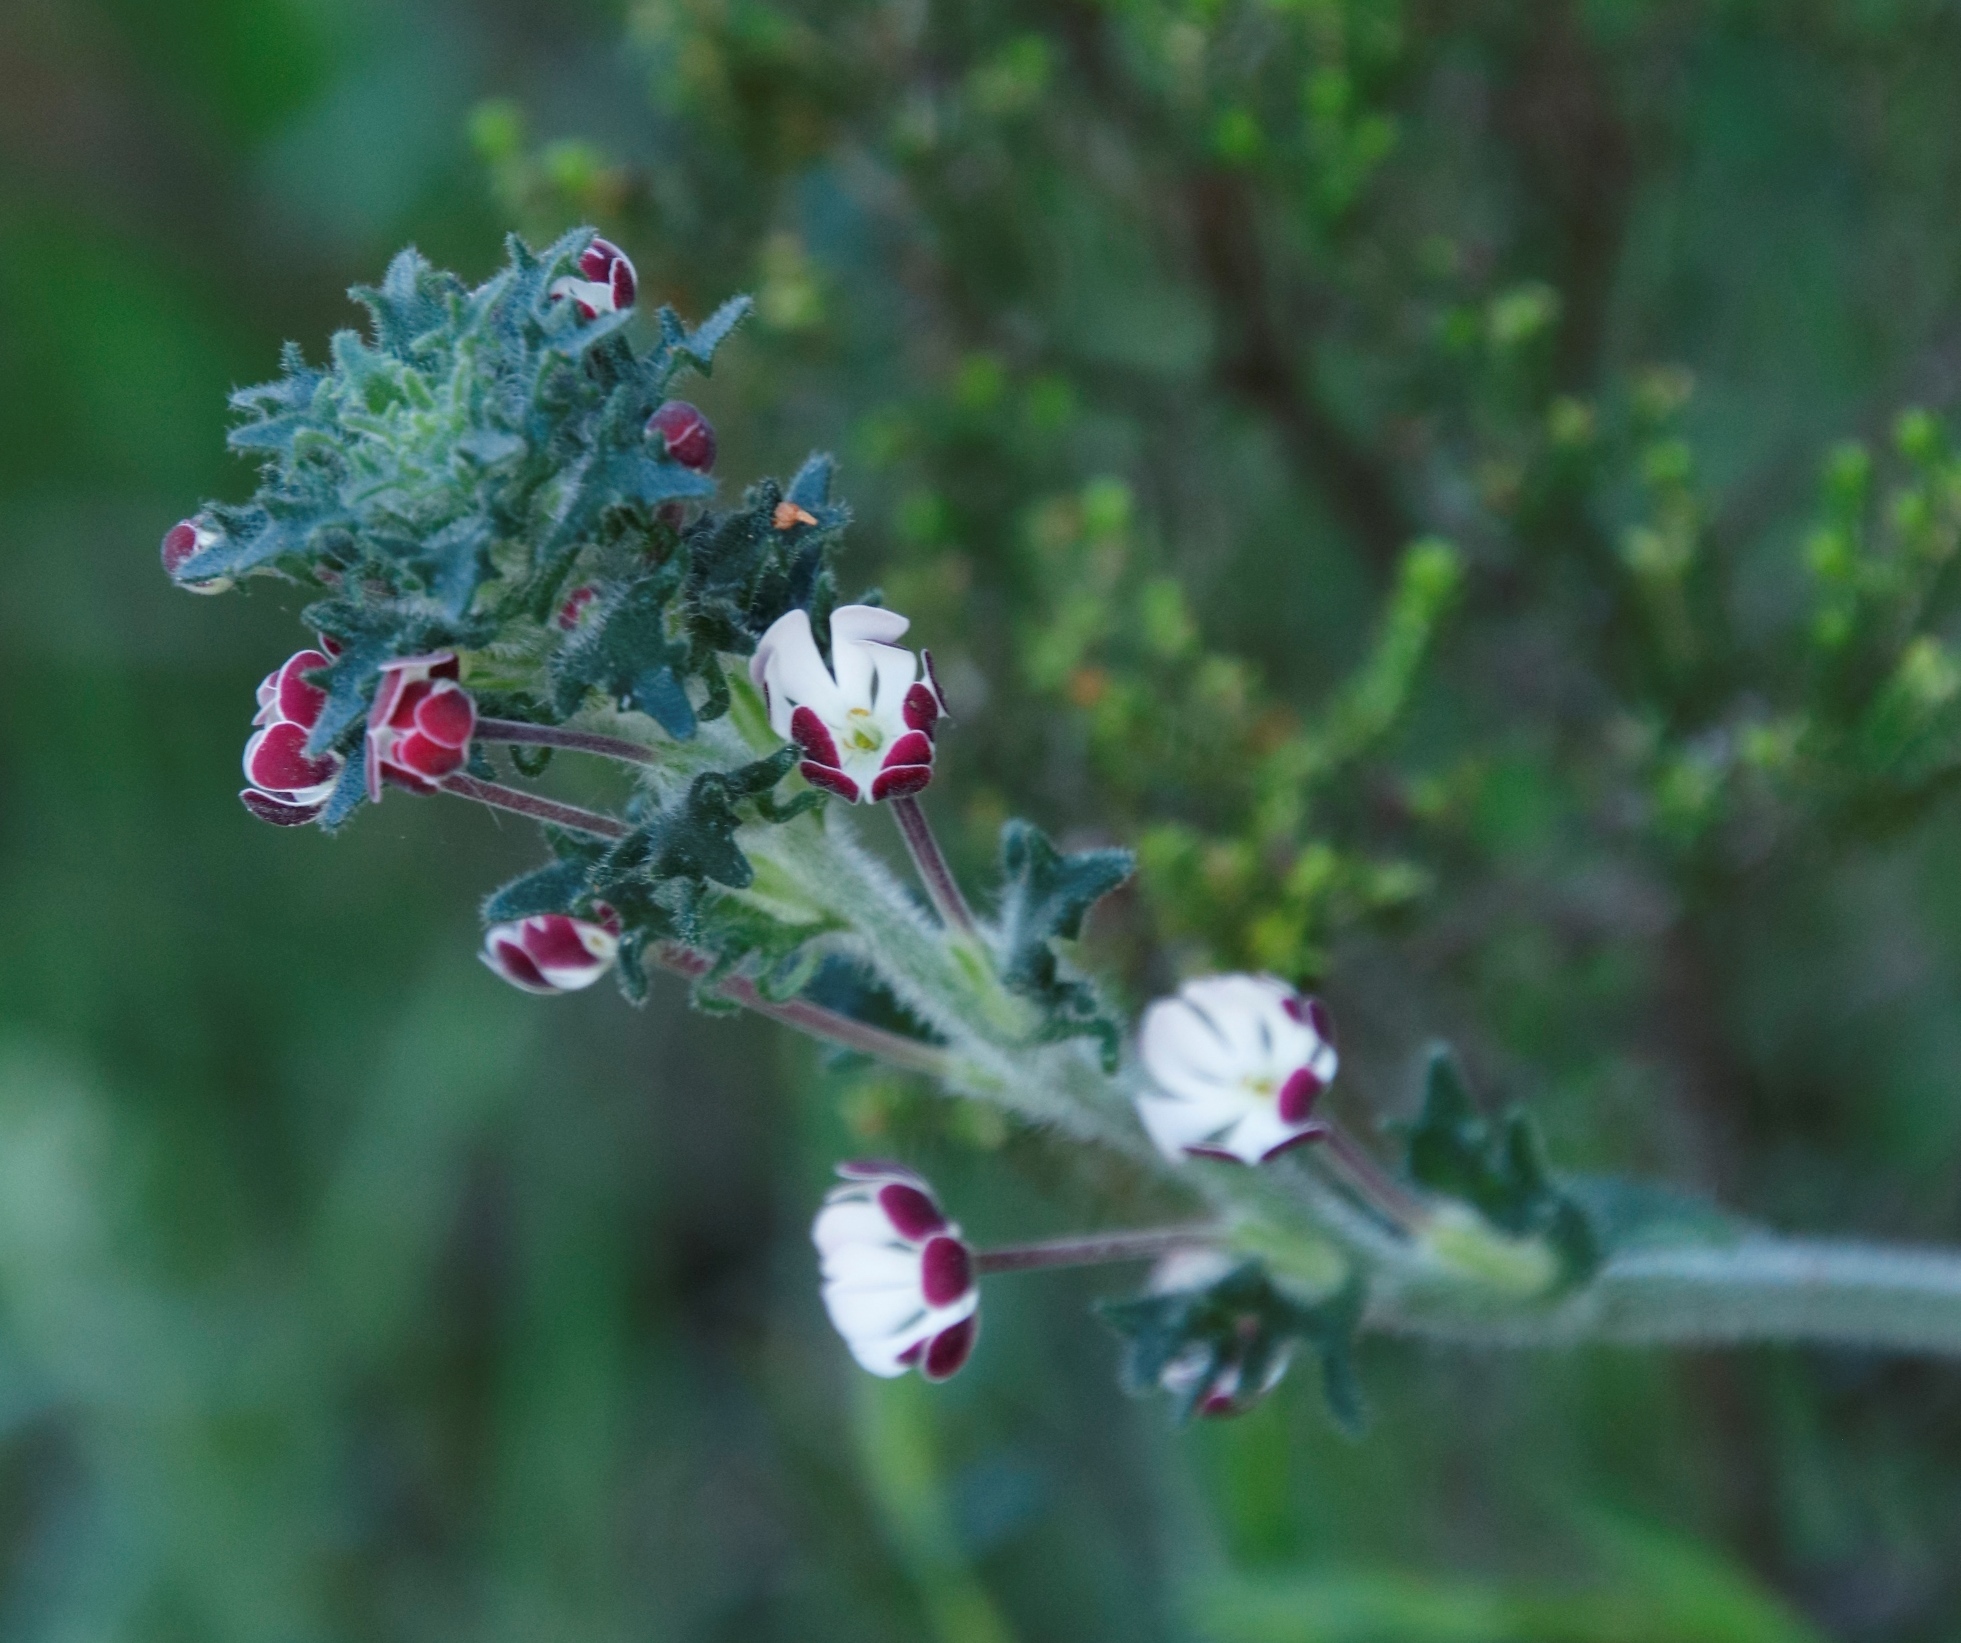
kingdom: Plantae
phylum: Tracheophyta
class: Magnoliopsida
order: Lamiales
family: Scrophulariaceae
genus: Zaluzianskya
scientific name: Zaluzianskya capensis
